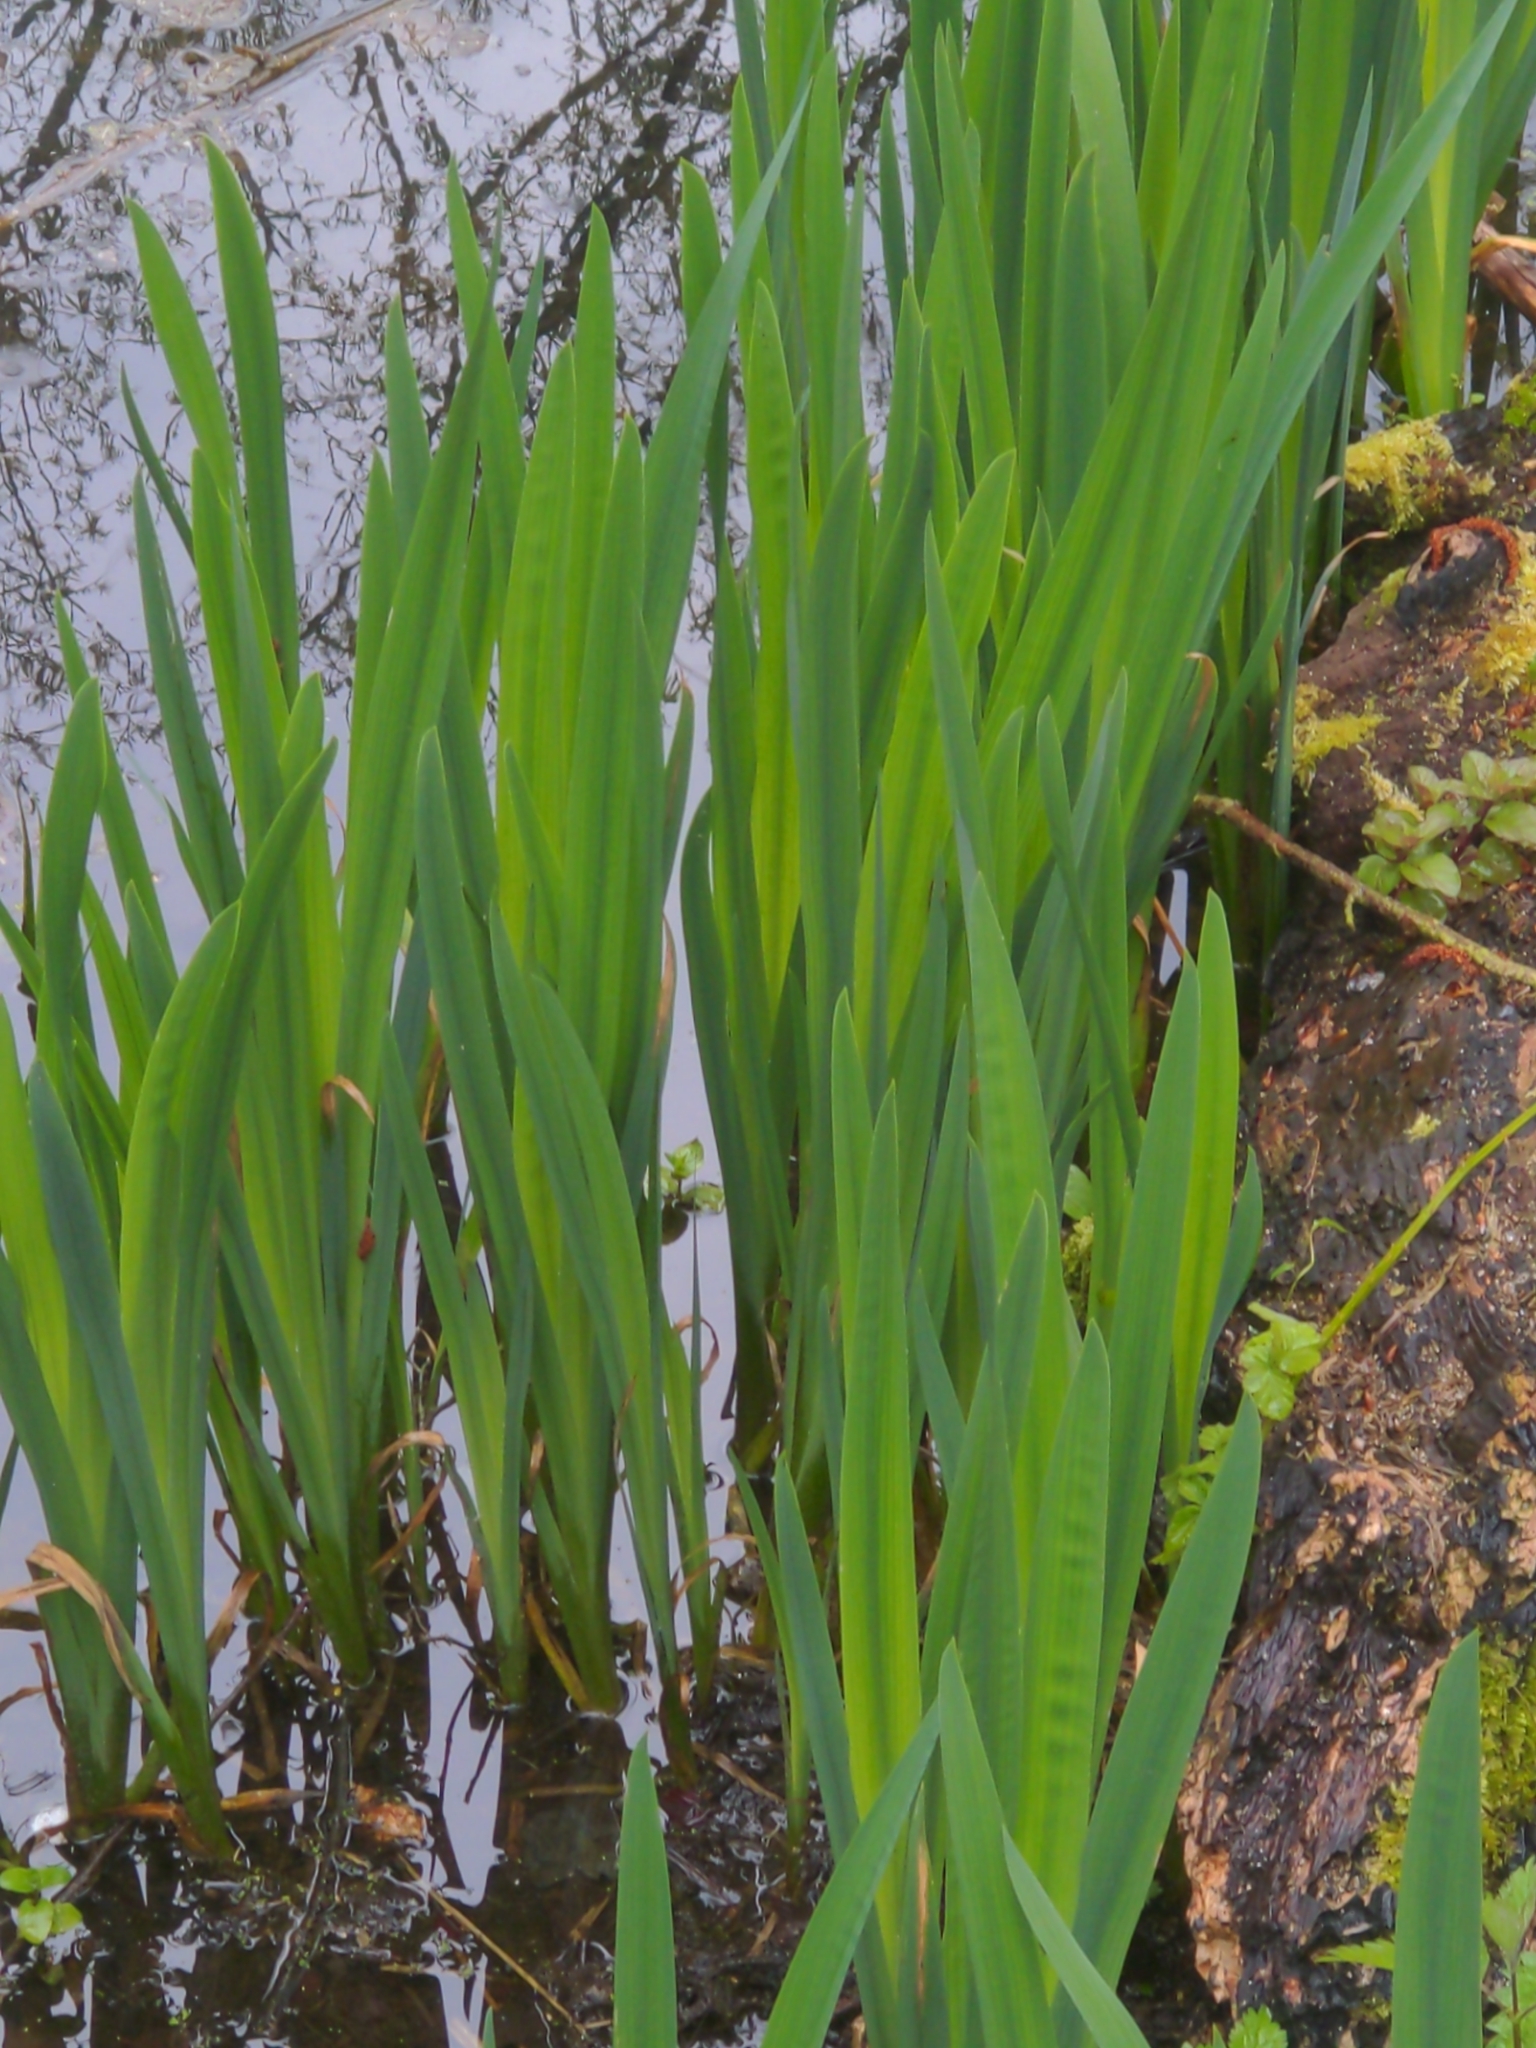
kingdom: Plantae
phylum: Tracheophyta
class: Liliopsida
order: Asparagales
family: Iridaceae
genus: Iris
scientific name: Iris pseudacorus
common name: Yellow flag
